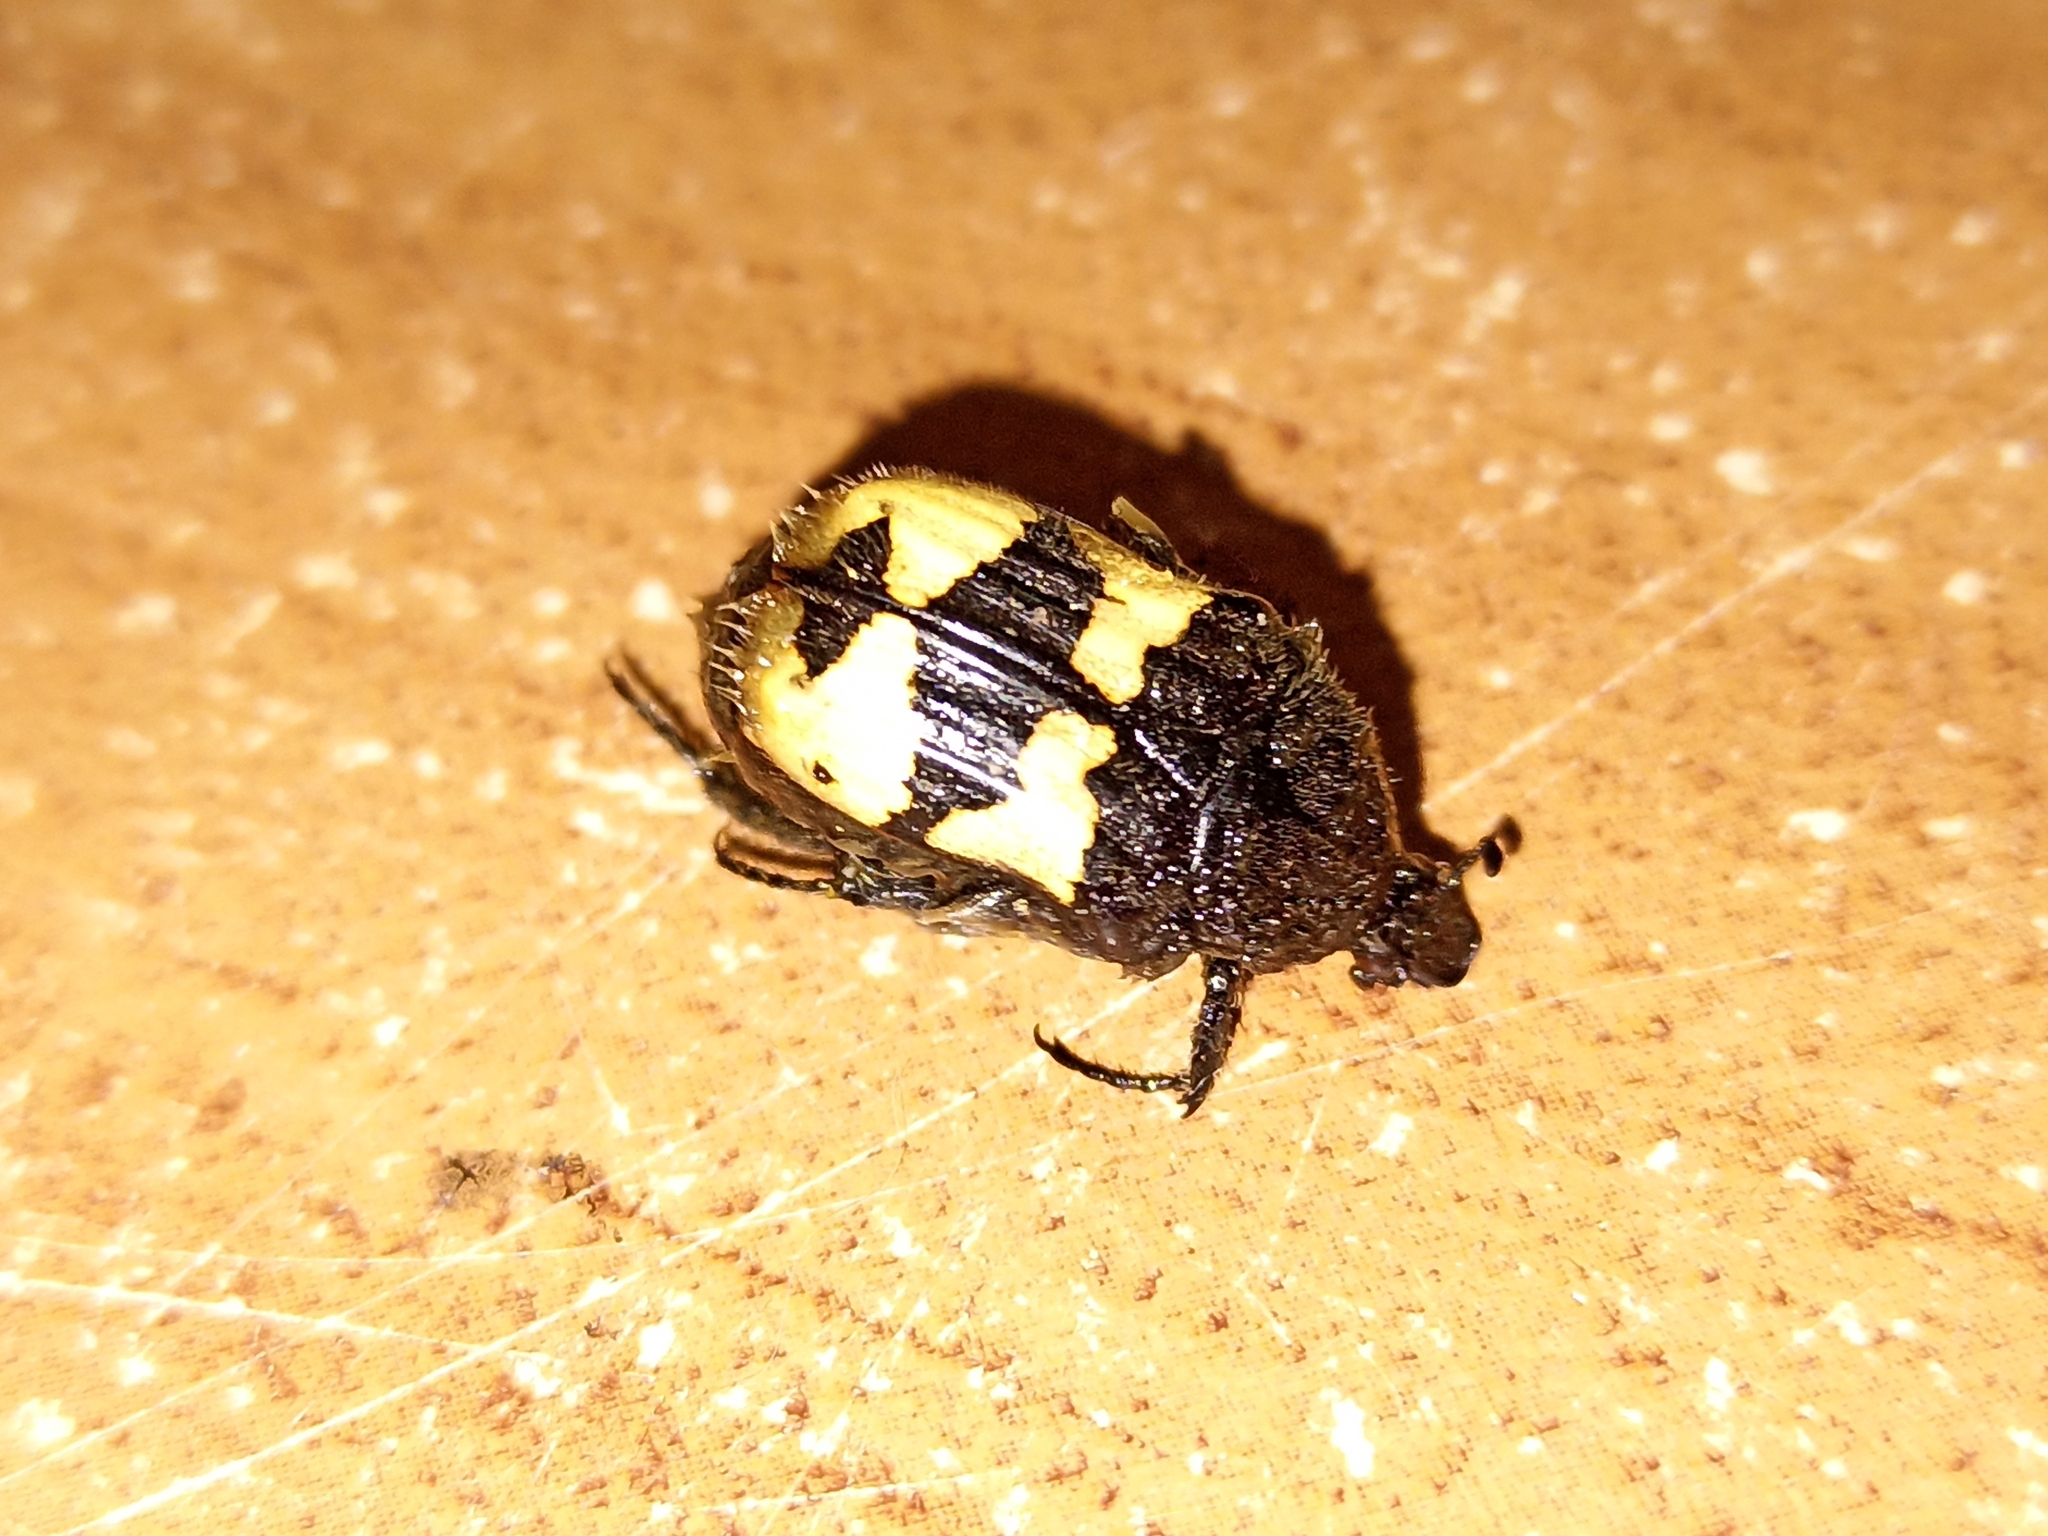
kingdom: Animalia
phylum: Arthropoda
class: Insecta
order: Coleoptera
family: Scarabaeidae
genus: Euphoria
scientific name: Euphoria basalis
